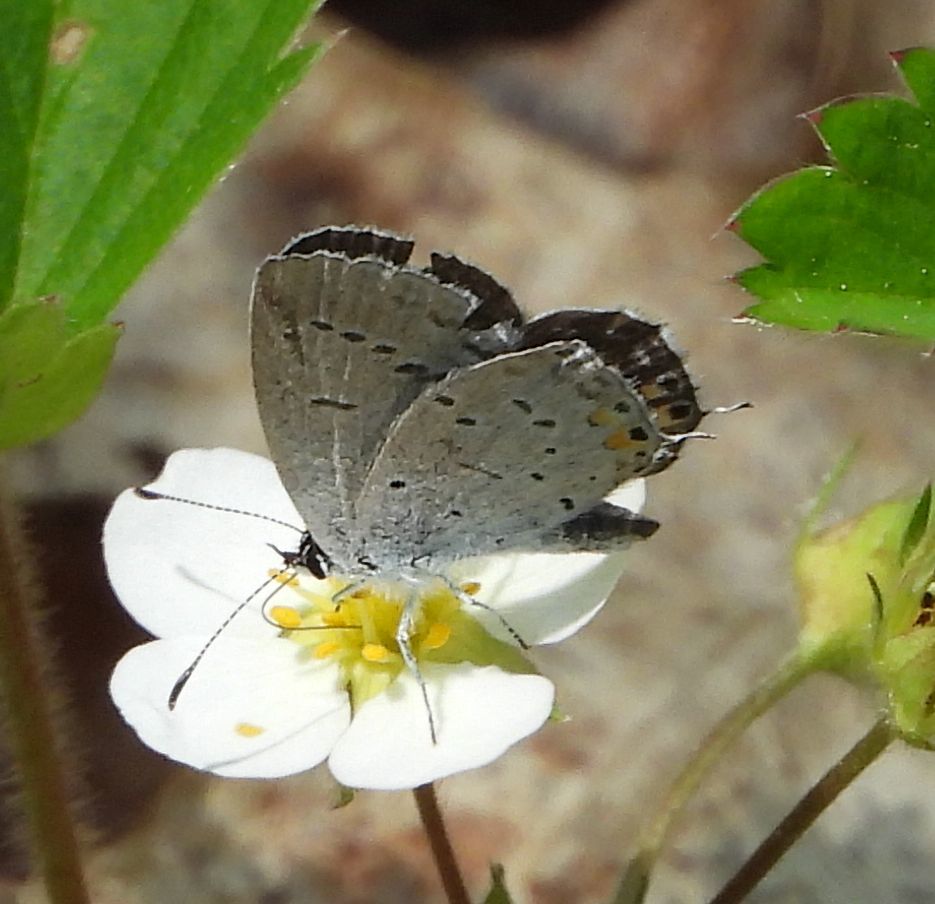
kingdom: Animalia
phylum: Arthropoda
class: Insecta
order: Lepidoptera
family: Lycaenidae
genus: Elkalyce
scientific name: Elkalyce comyntas
